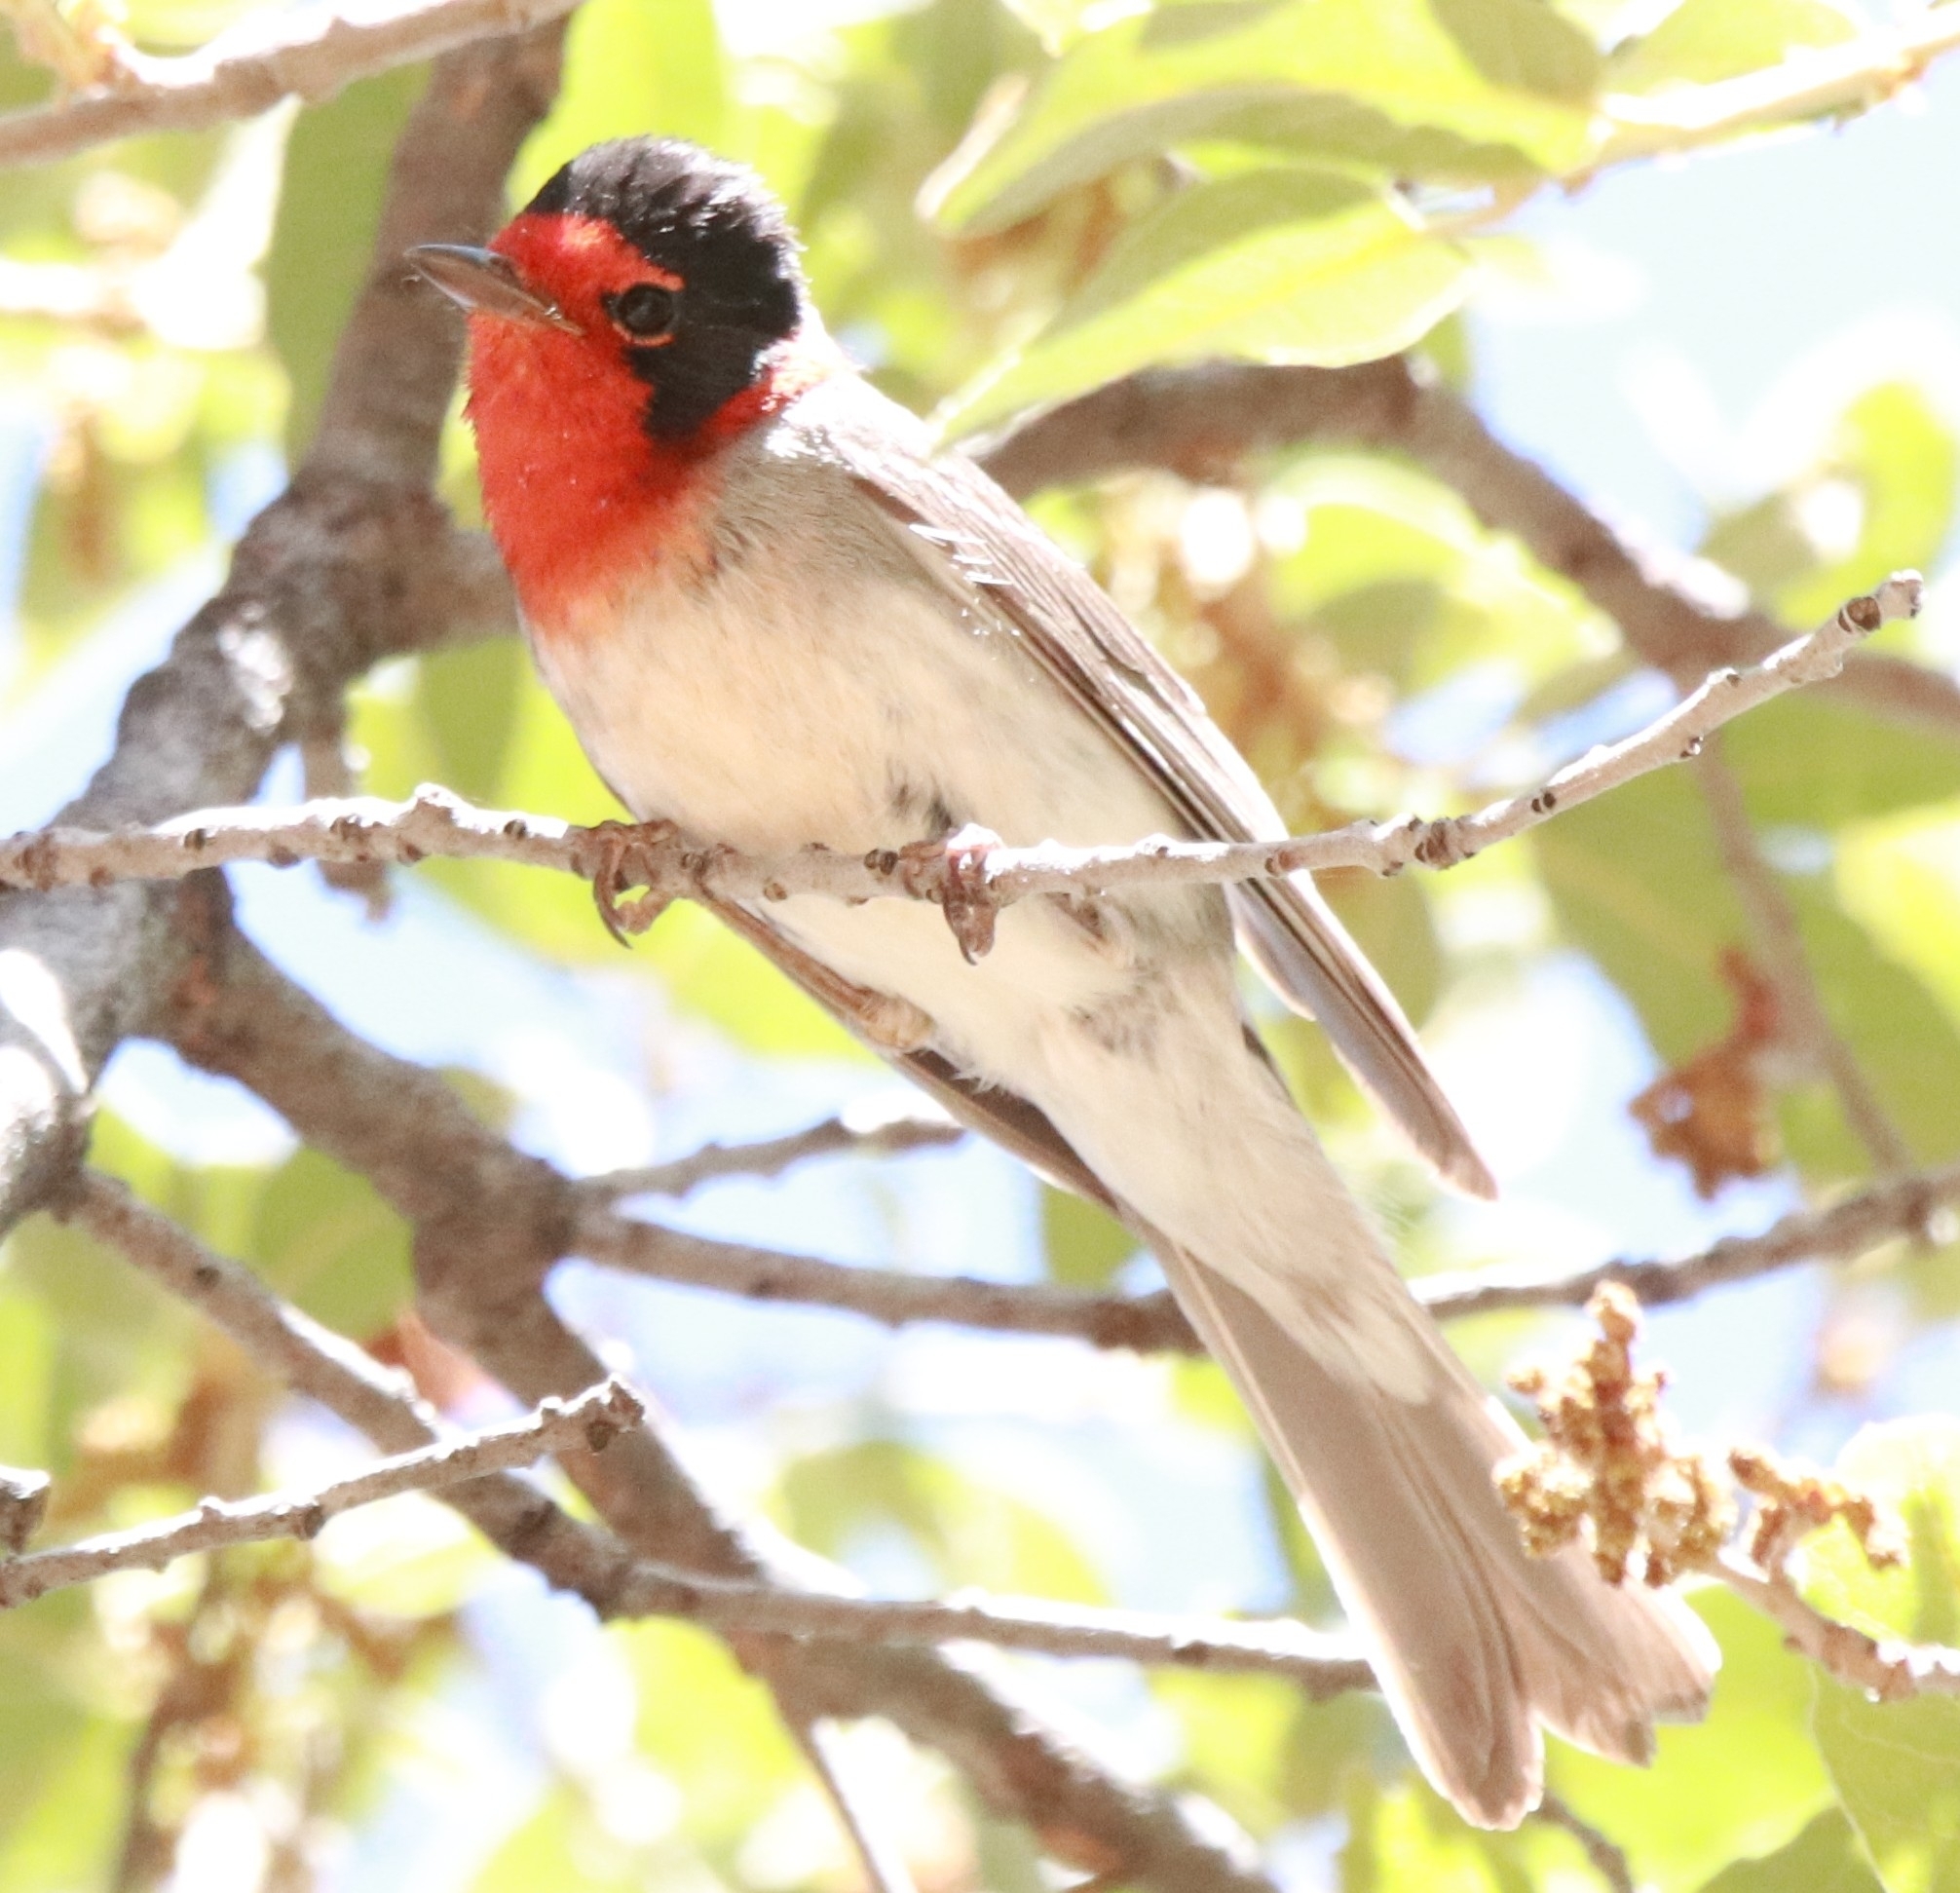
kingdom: Animalia
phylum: Chordata
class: Aves
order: Passeriformes
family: Parulidae
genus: Cardellina
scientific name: Cardellina rubrifrons
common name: Red-faced warbler
